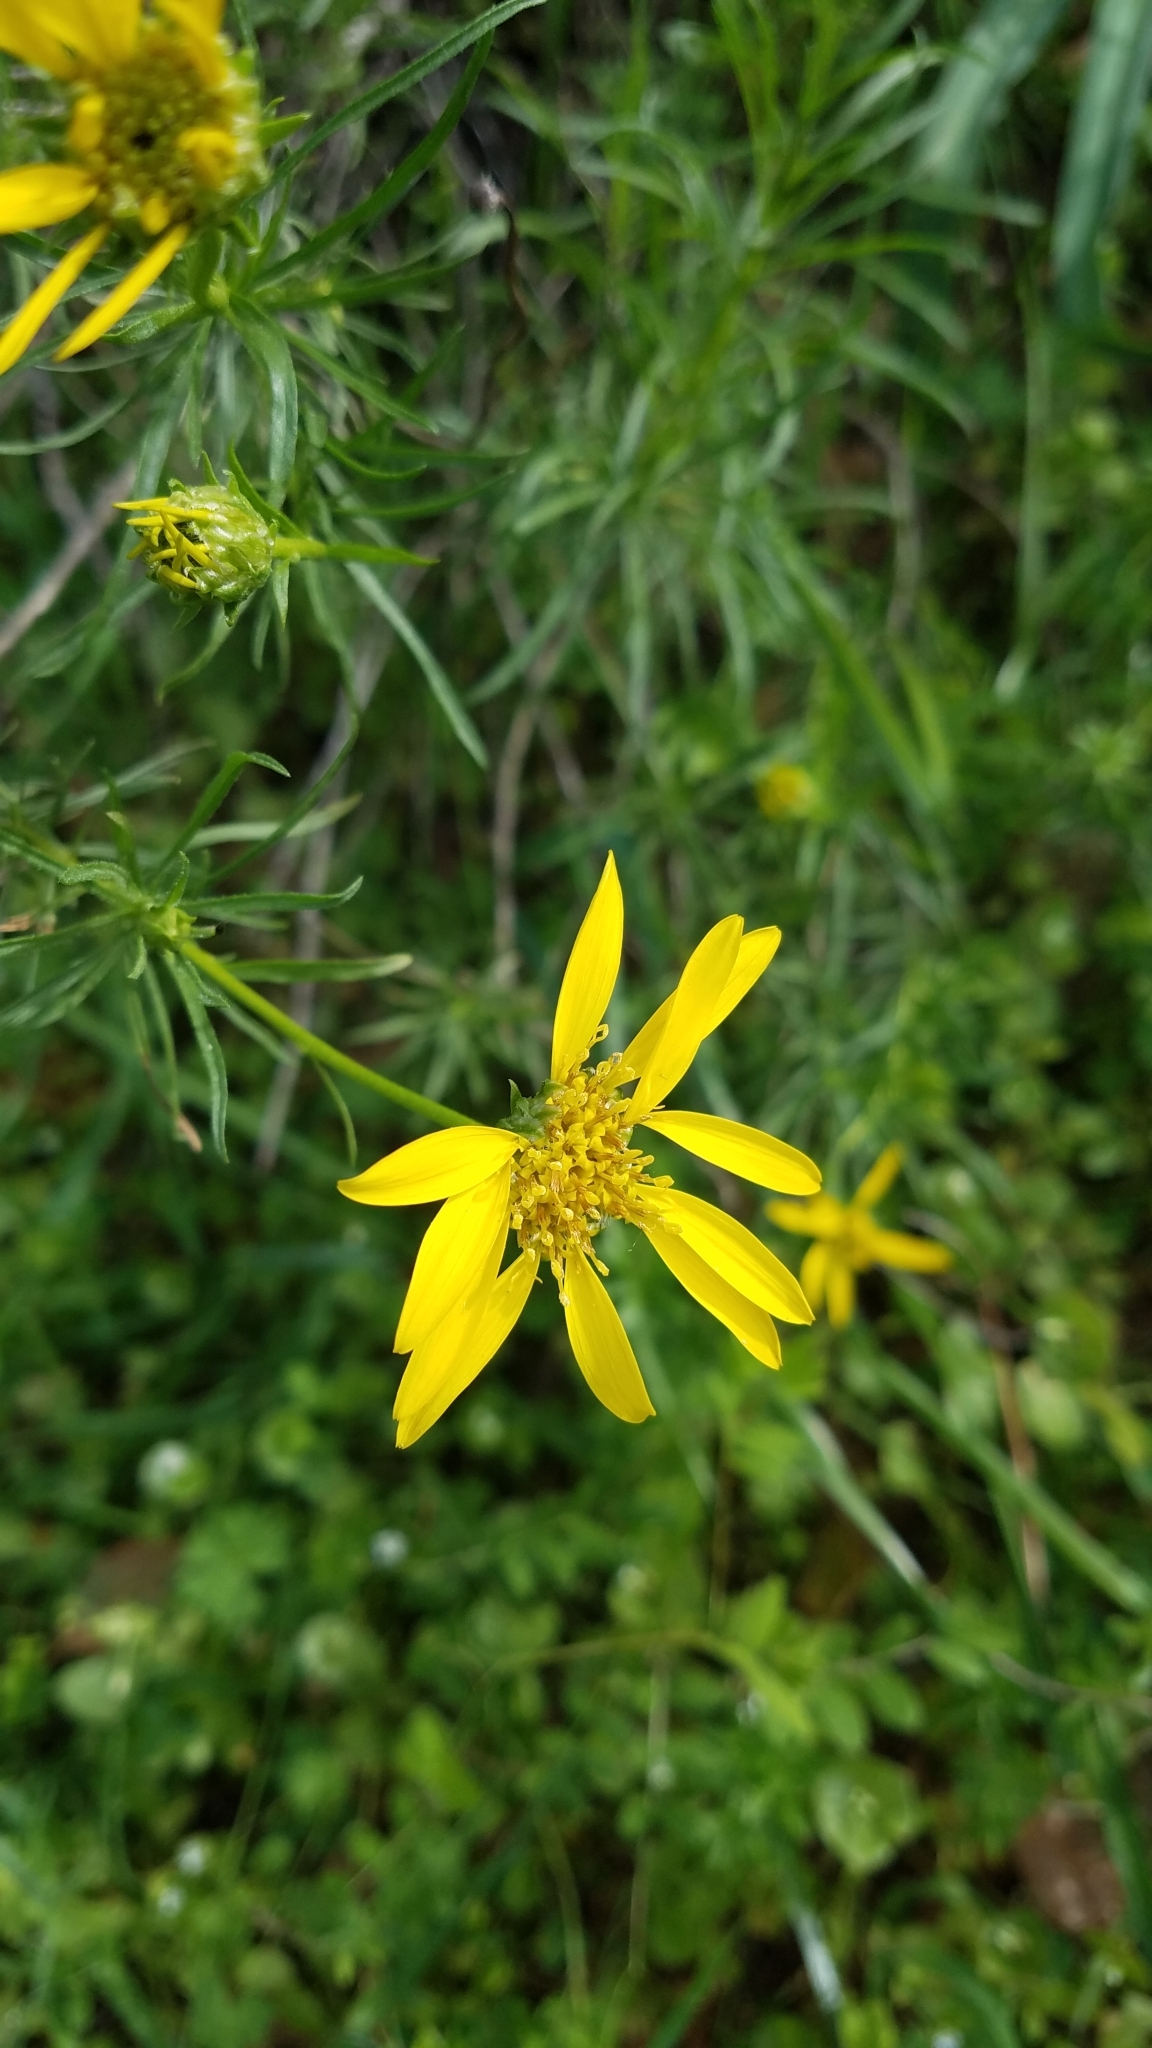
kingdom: Plantae
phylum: Tracheophyta
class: Magnoliopsida
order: Asterales
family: Asteraceae
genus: Ericameria
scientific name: Ericameria linearifolia
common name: Interior goldenbush
